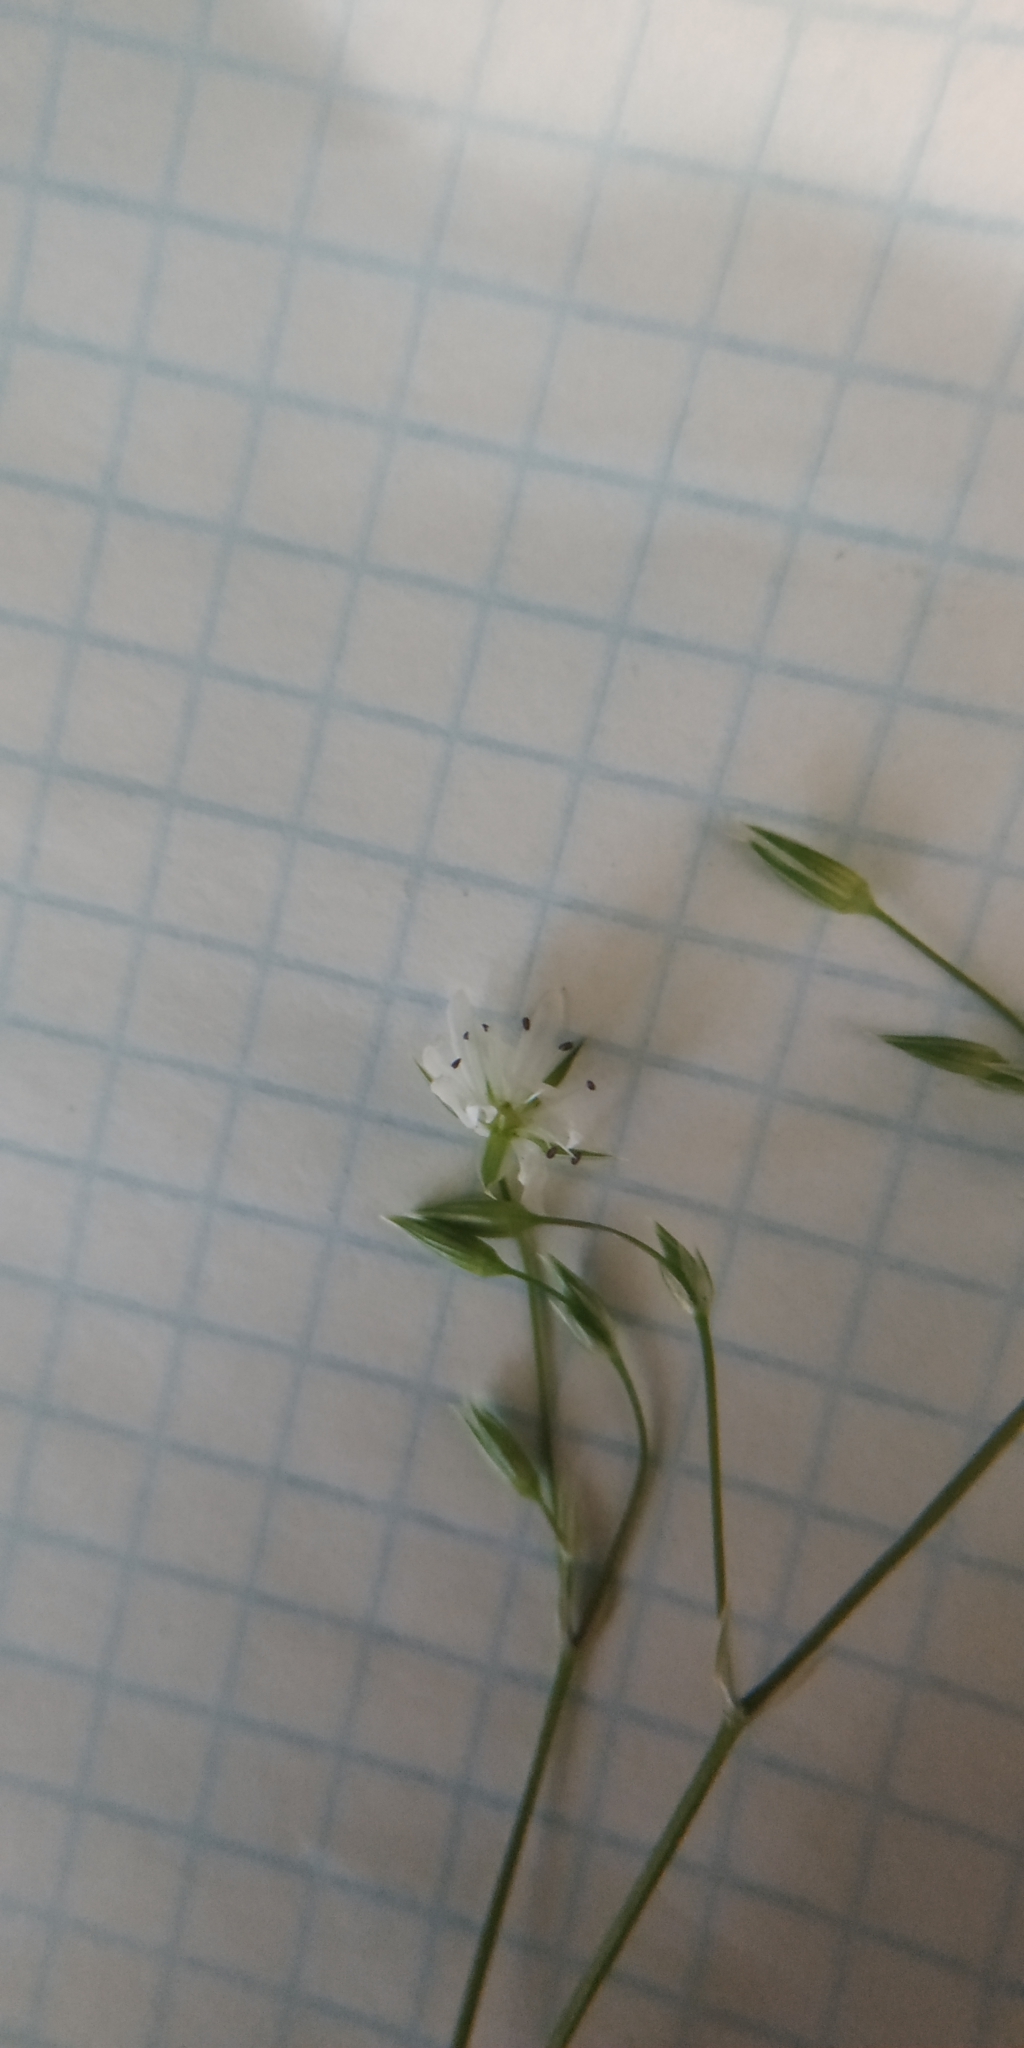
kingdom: Plantae
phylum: Tracheophyta
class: Magnoliopsida
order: Caryophyllales
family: Caryophyllaceae
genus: Stellaria
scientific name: Stellaria graminea
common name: Grass-like starwort
